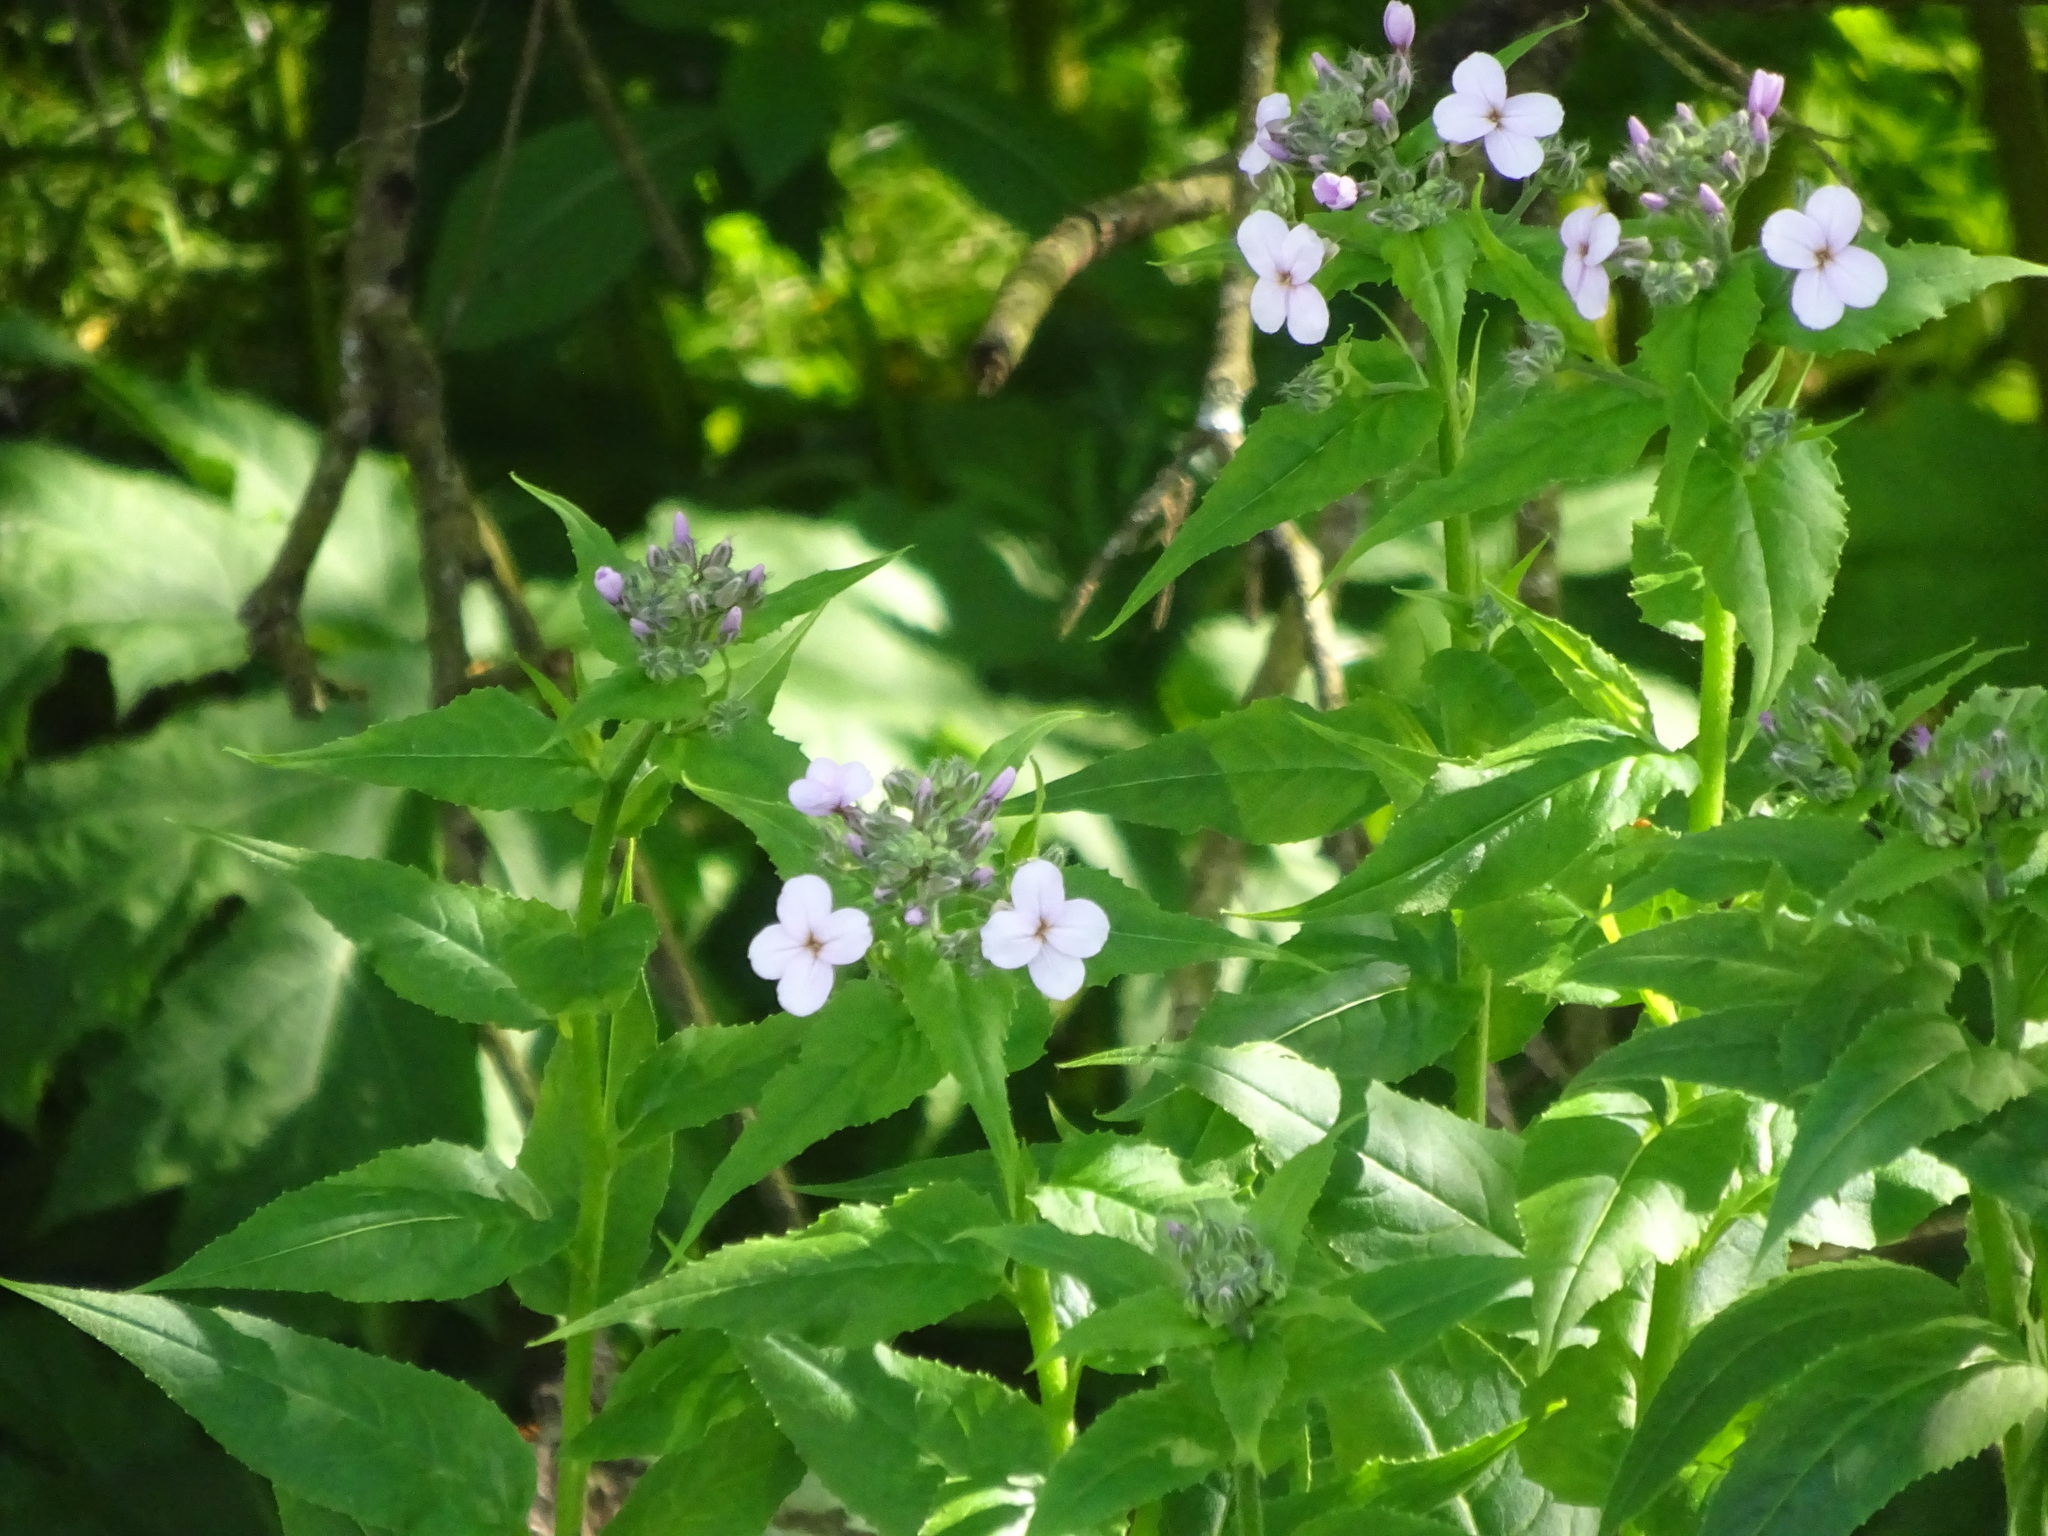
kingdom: Plantae
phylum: Tracheophyta
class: Magnoliopsida
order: Brassicales
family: Brassicaceae
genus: Hesperis
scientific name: Hesperis matronalis
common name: Dame's-violet
